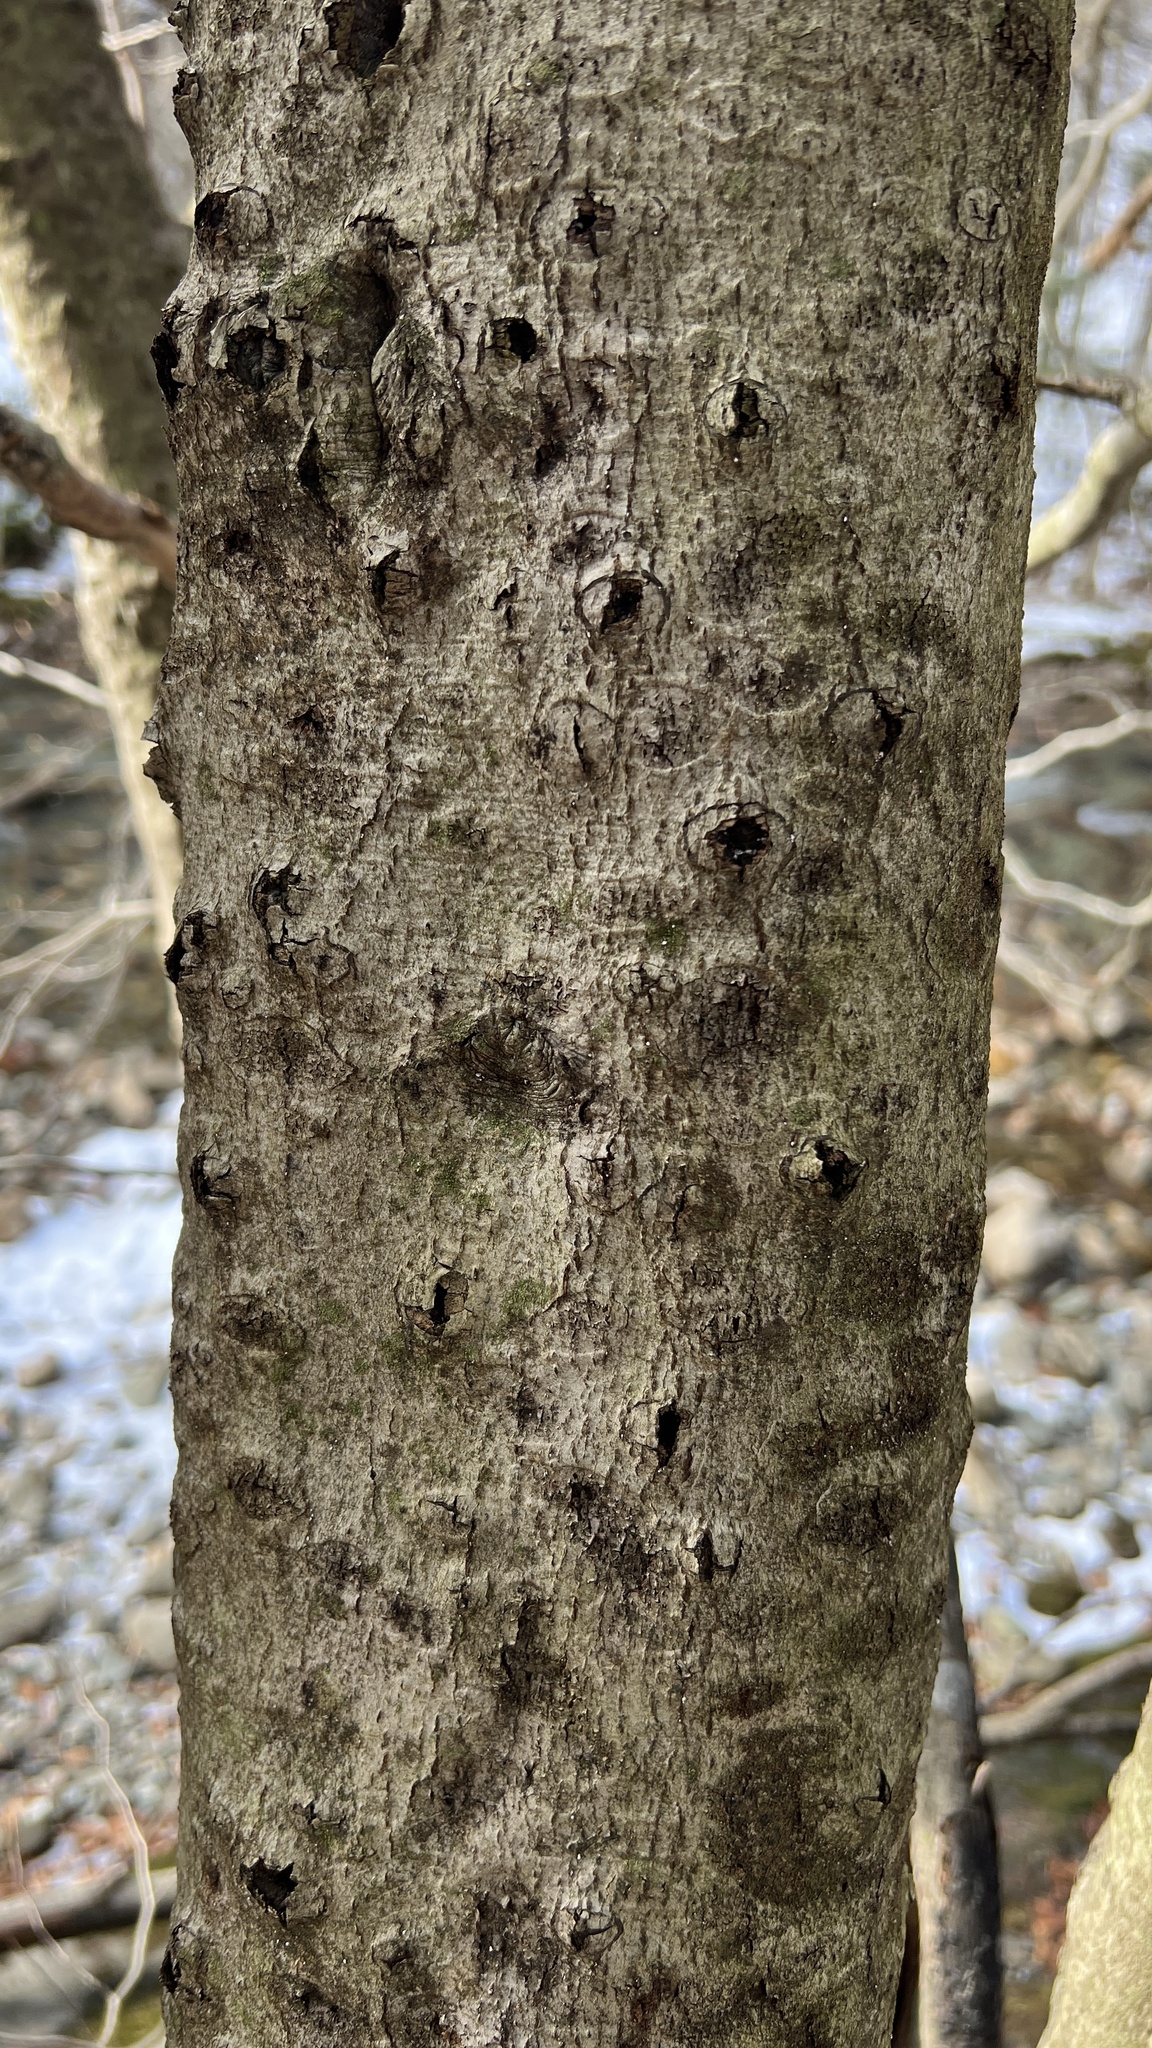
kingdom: Plantae
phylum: Tracheophyta
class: Magnoliopsida
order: Fagales
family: Fagaceae
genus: Fagus
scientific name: Fagus grandifolia
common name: American beech
